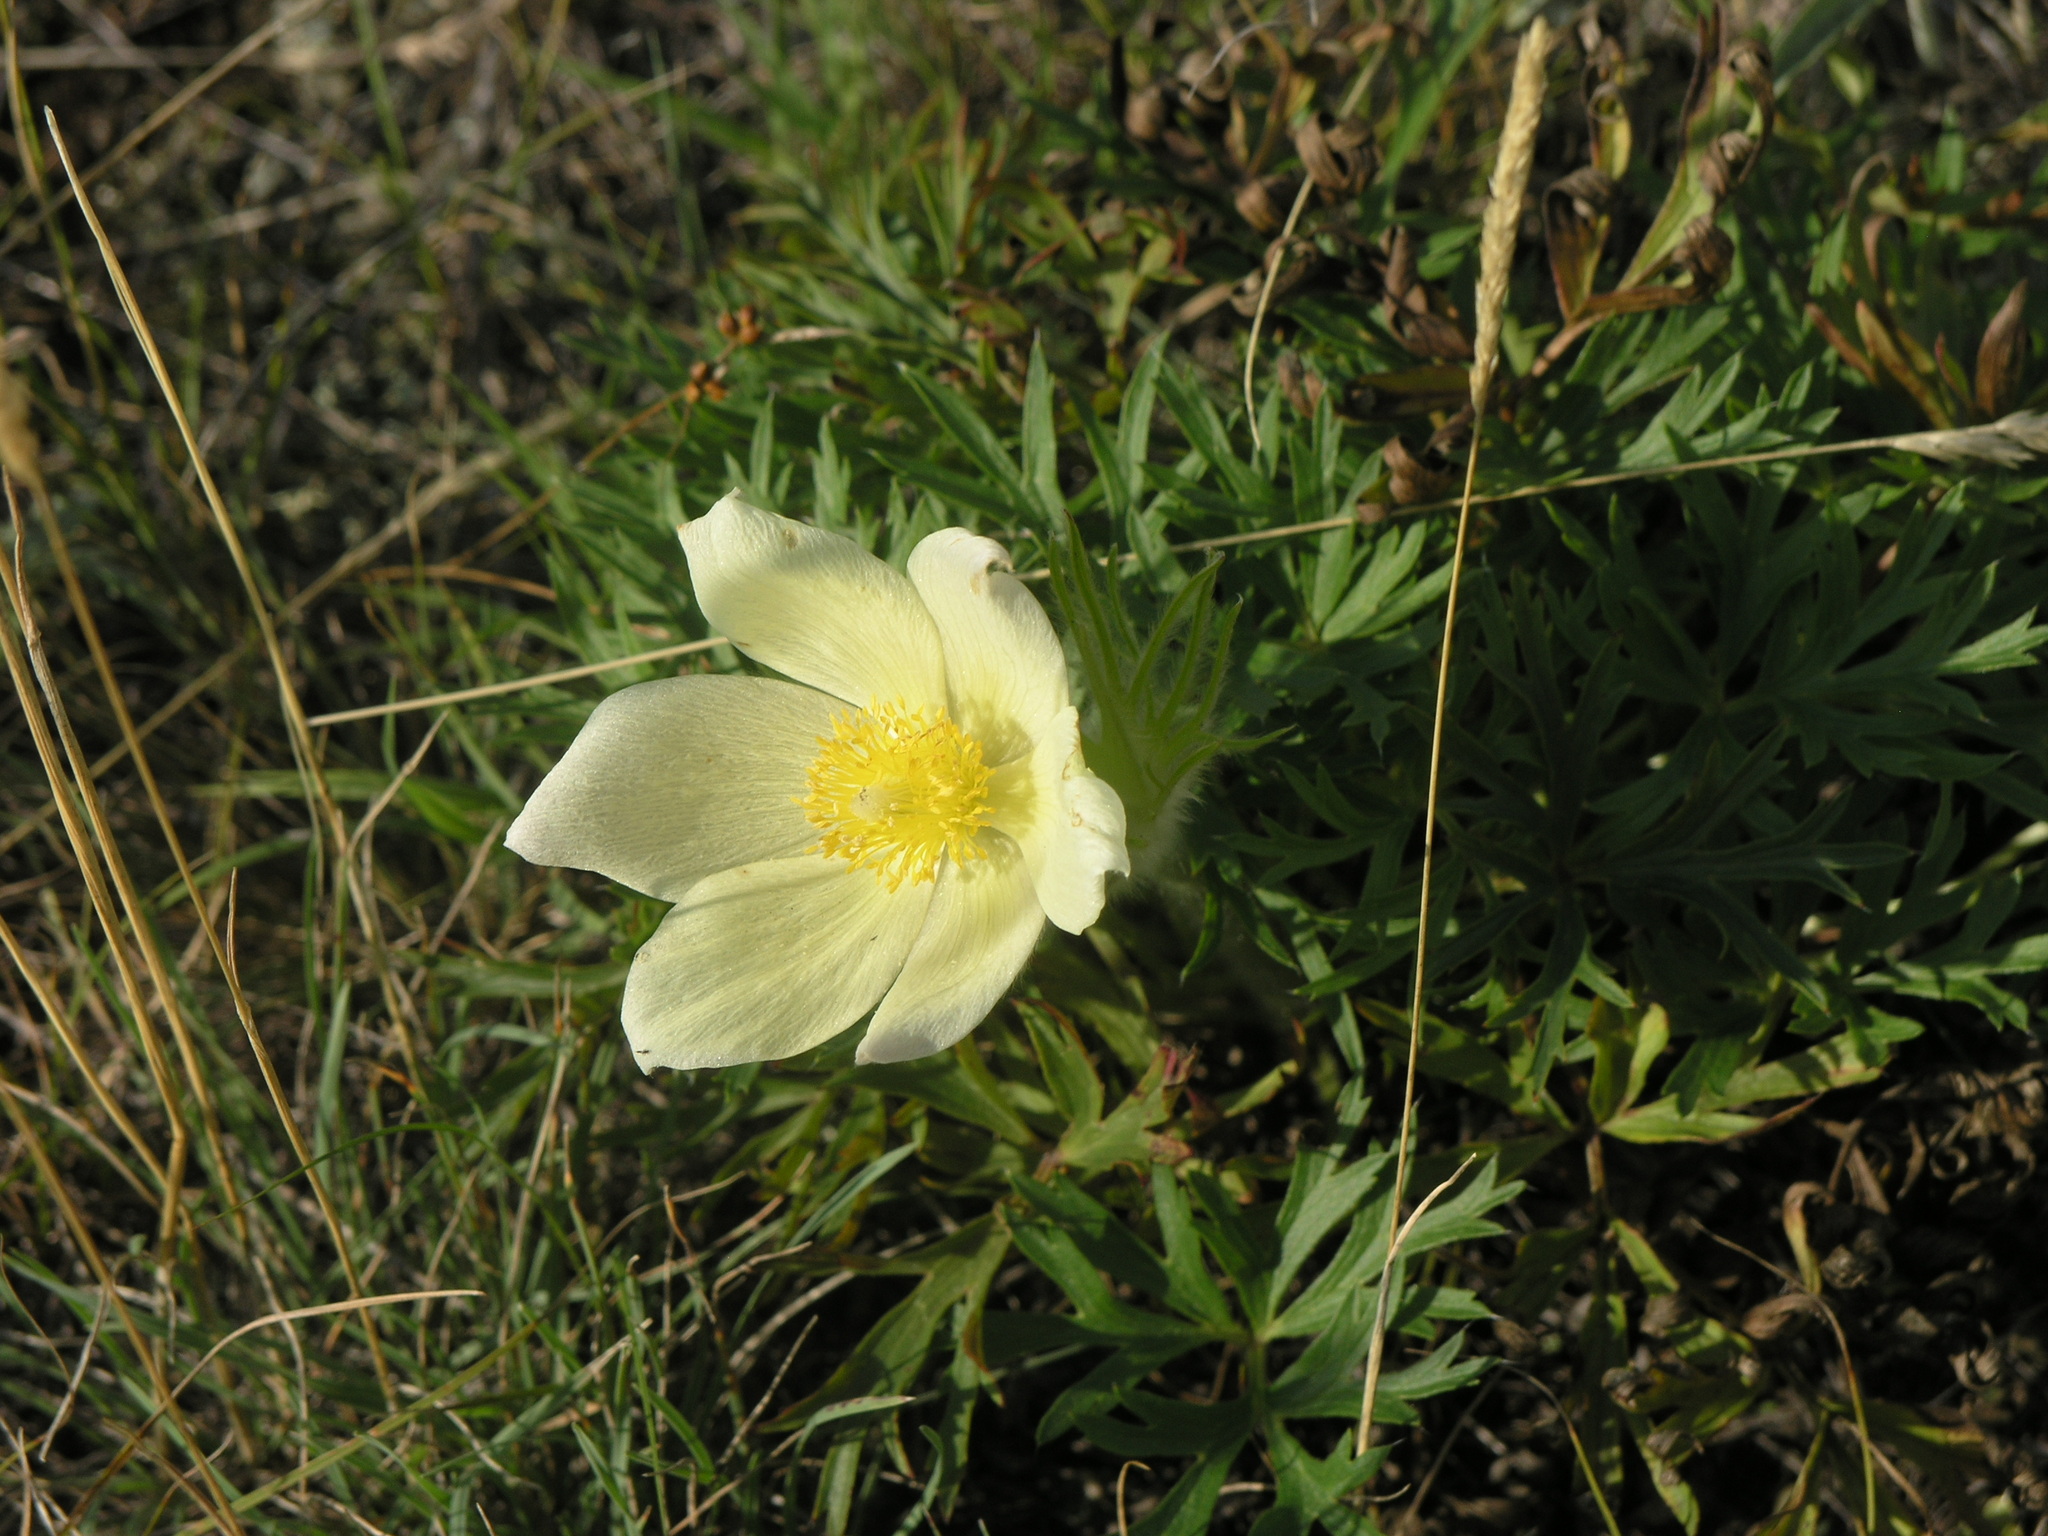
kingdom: Plantae
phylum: Tracheophyta
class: Magnoliopsida
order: Ranunculales
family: Ranunculaceae
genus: Pulsatilla
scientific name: Pulsatilla patens
